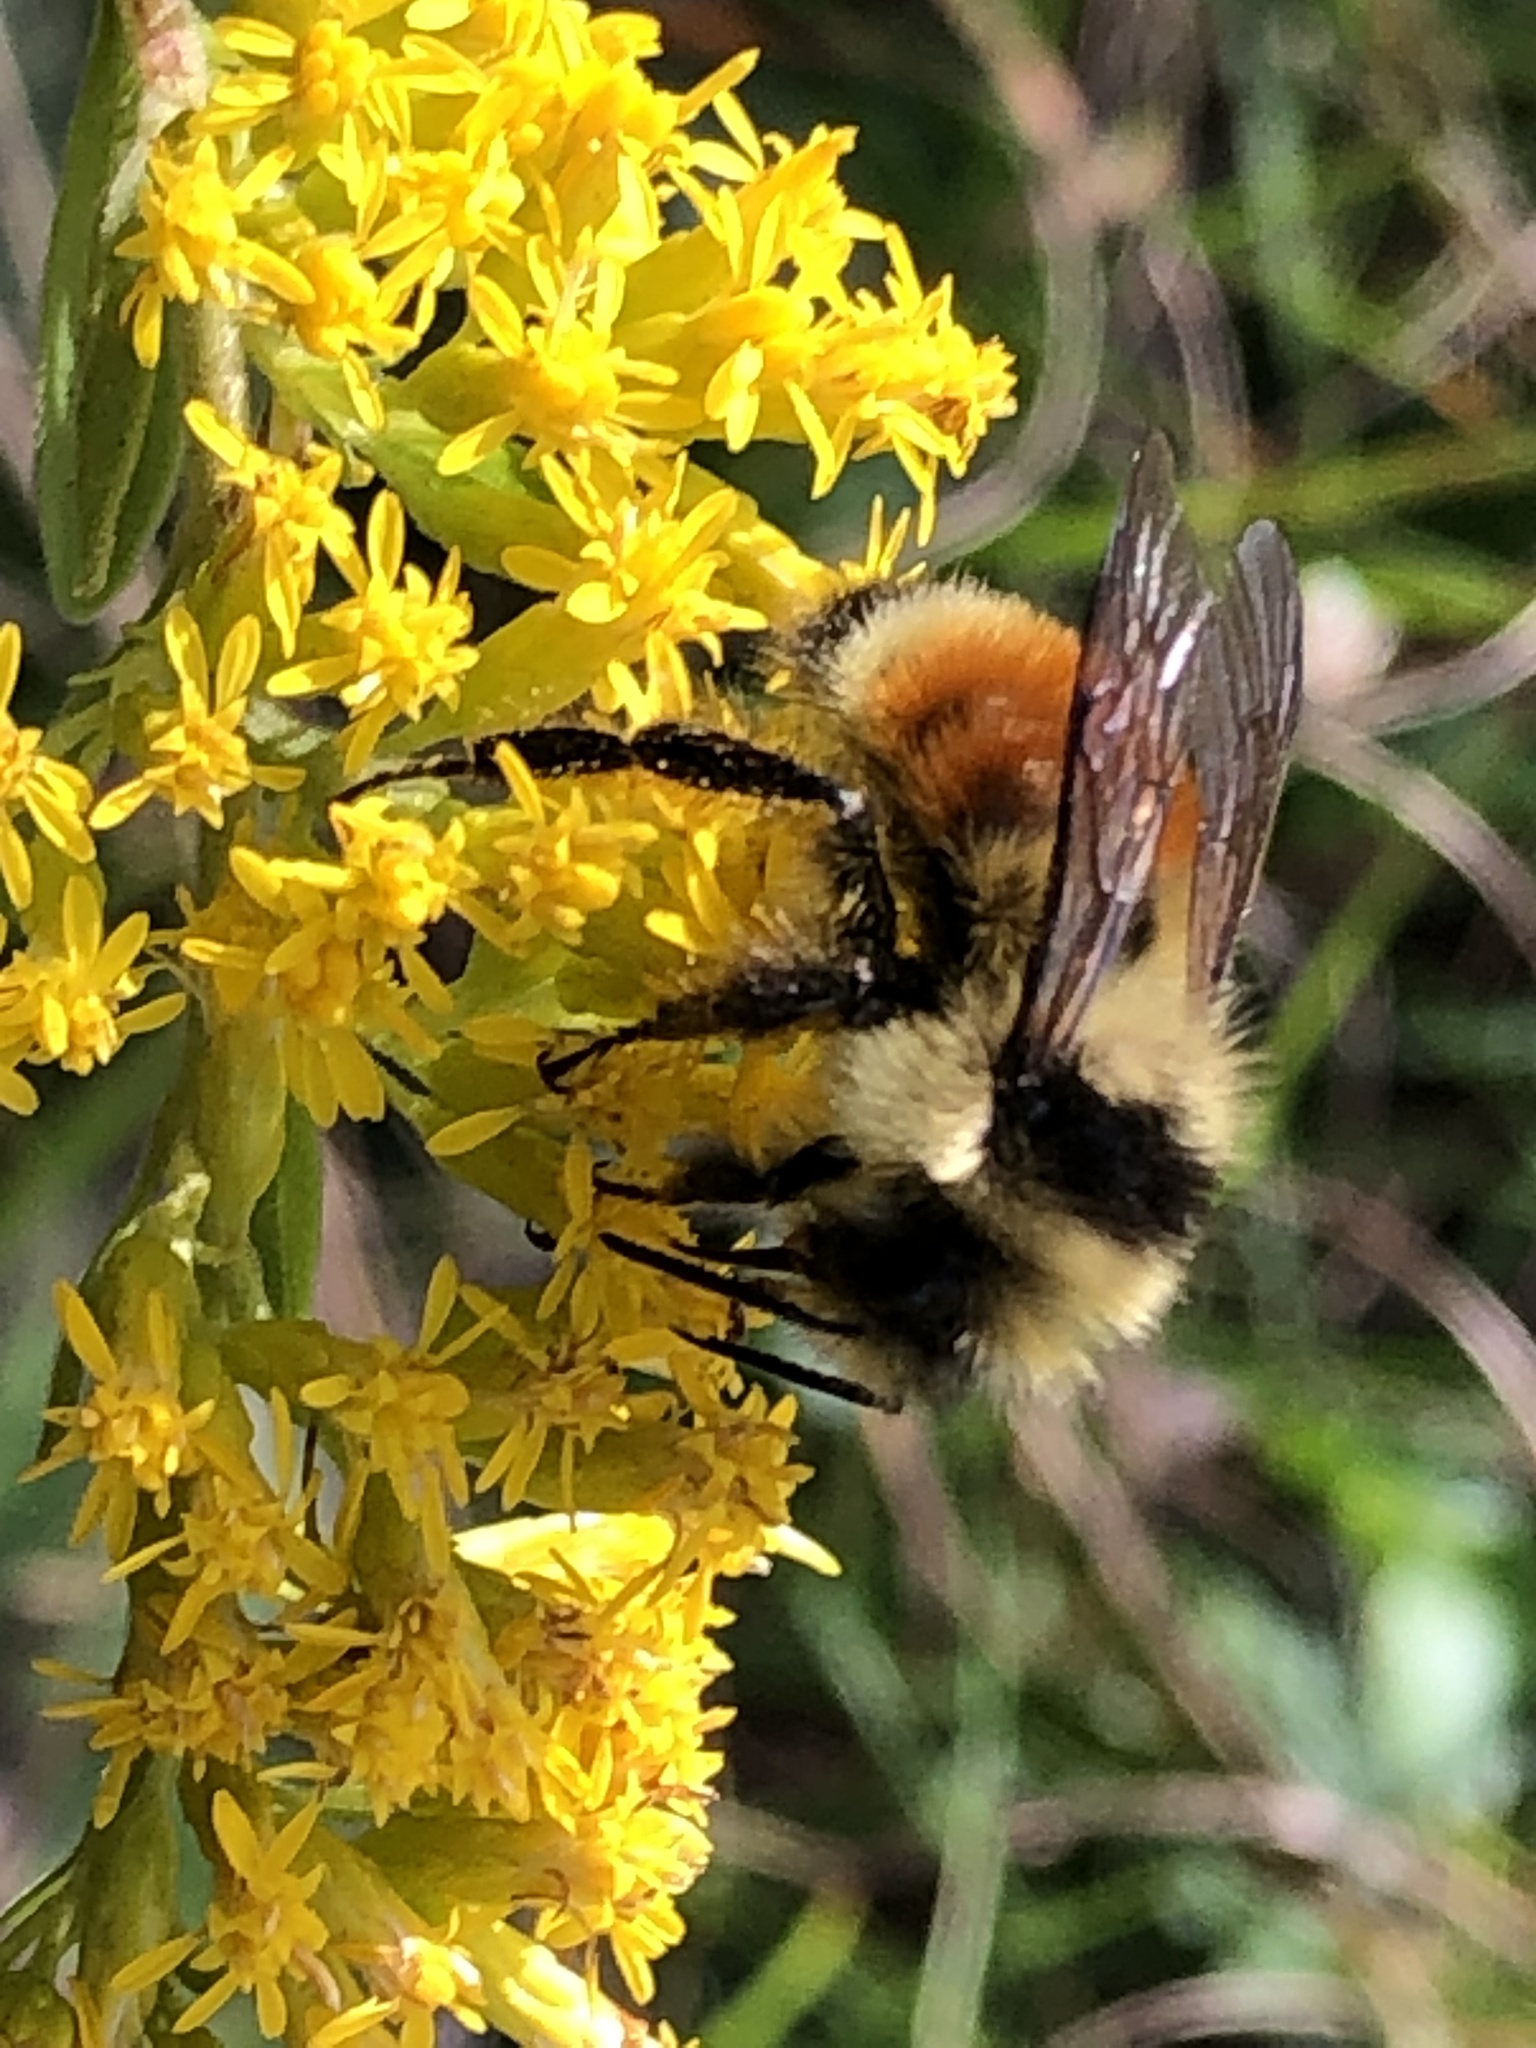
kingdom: Animalia
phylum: Arthropoda
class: Insecta
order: Hymenoptera
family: Apidae
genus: Bombus
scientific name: Bombus ternarius
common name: Tri-colored bumble bee
